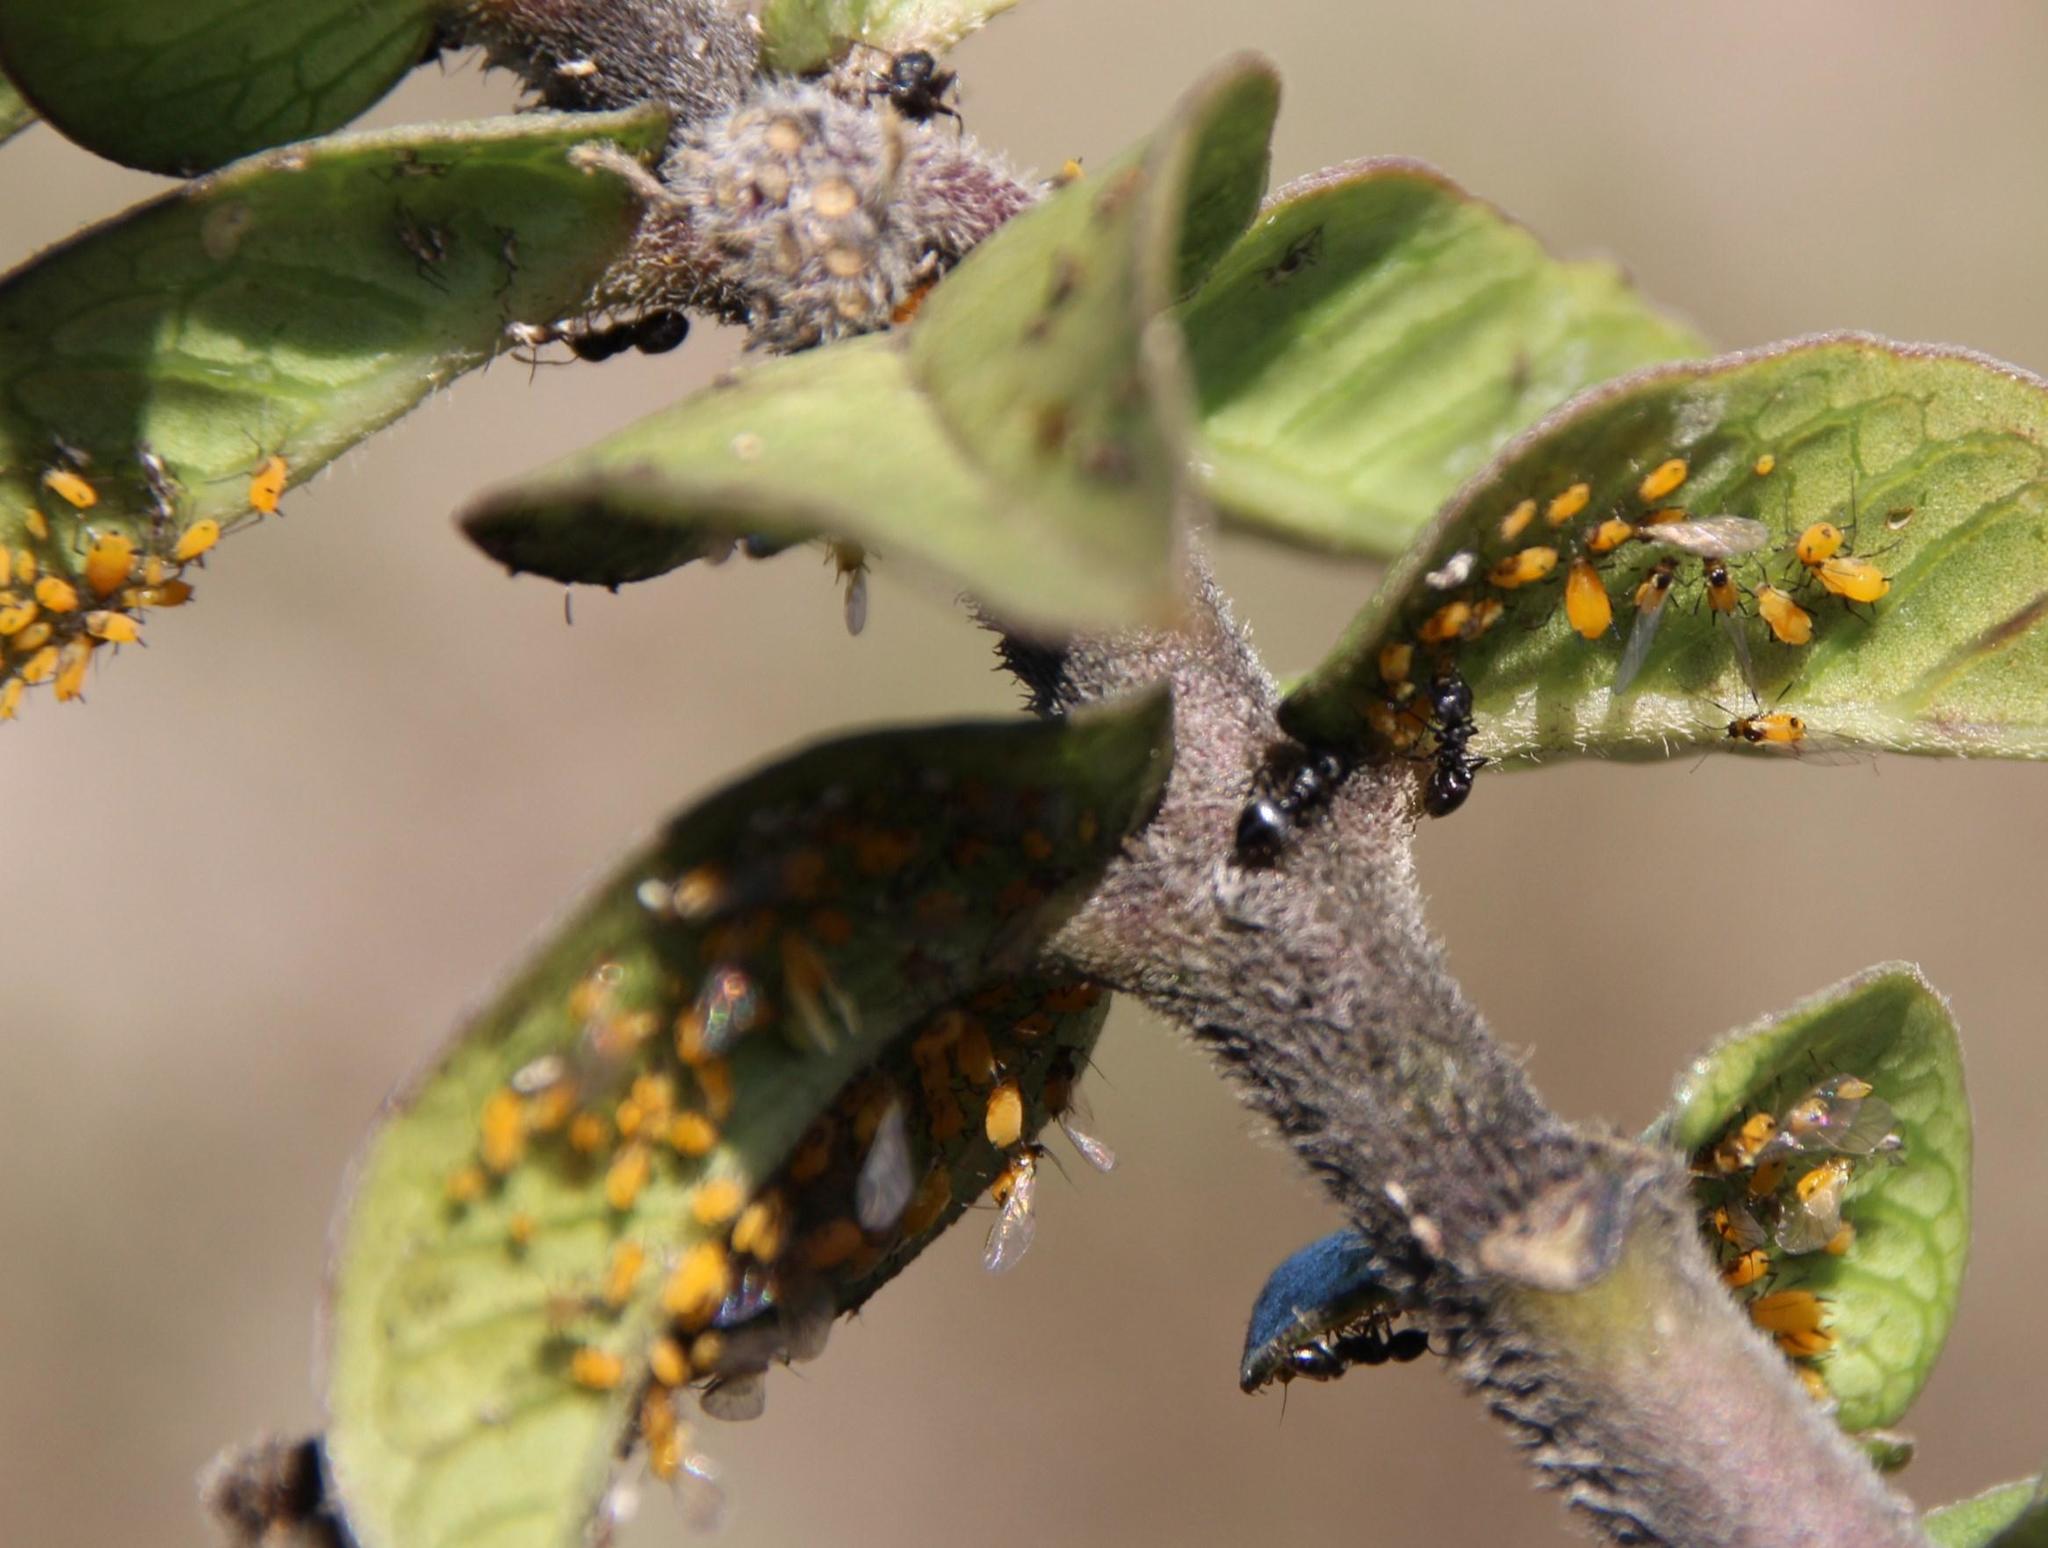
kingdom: Animalia
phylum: Arthropoda
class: Insecta
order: Hemiptera
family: Aphididae
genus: Aphis
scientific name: Aphis nerii
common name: Oleander aphid
